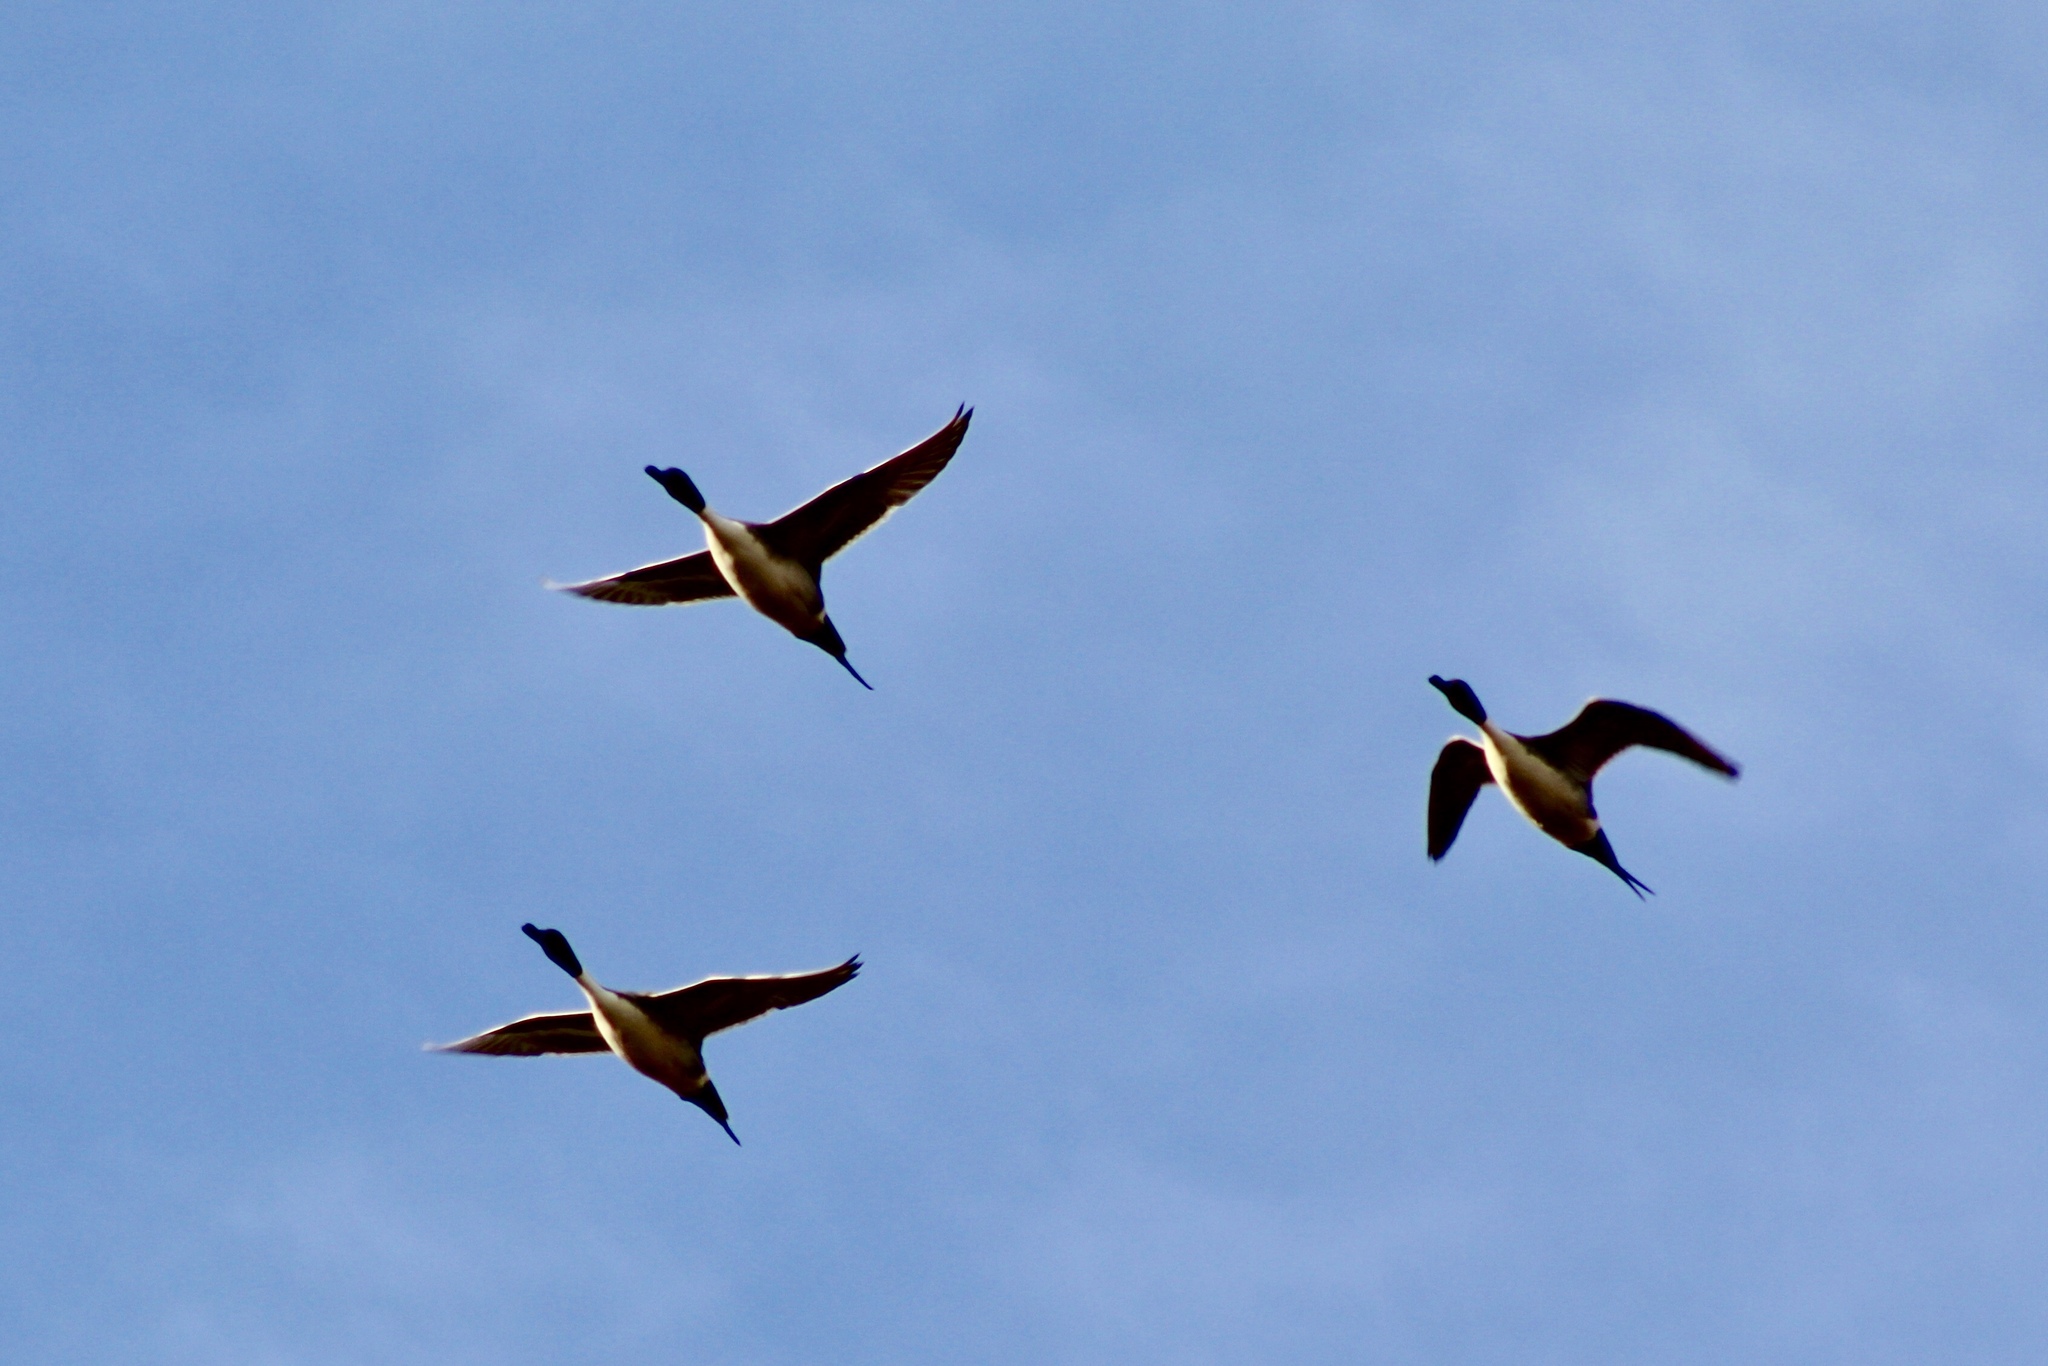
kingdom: Animalia
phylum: Chordata
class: Aves
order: Anseriformes
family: Anatidae
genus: Anas
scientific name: Anas acuta
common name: Northern pintail
